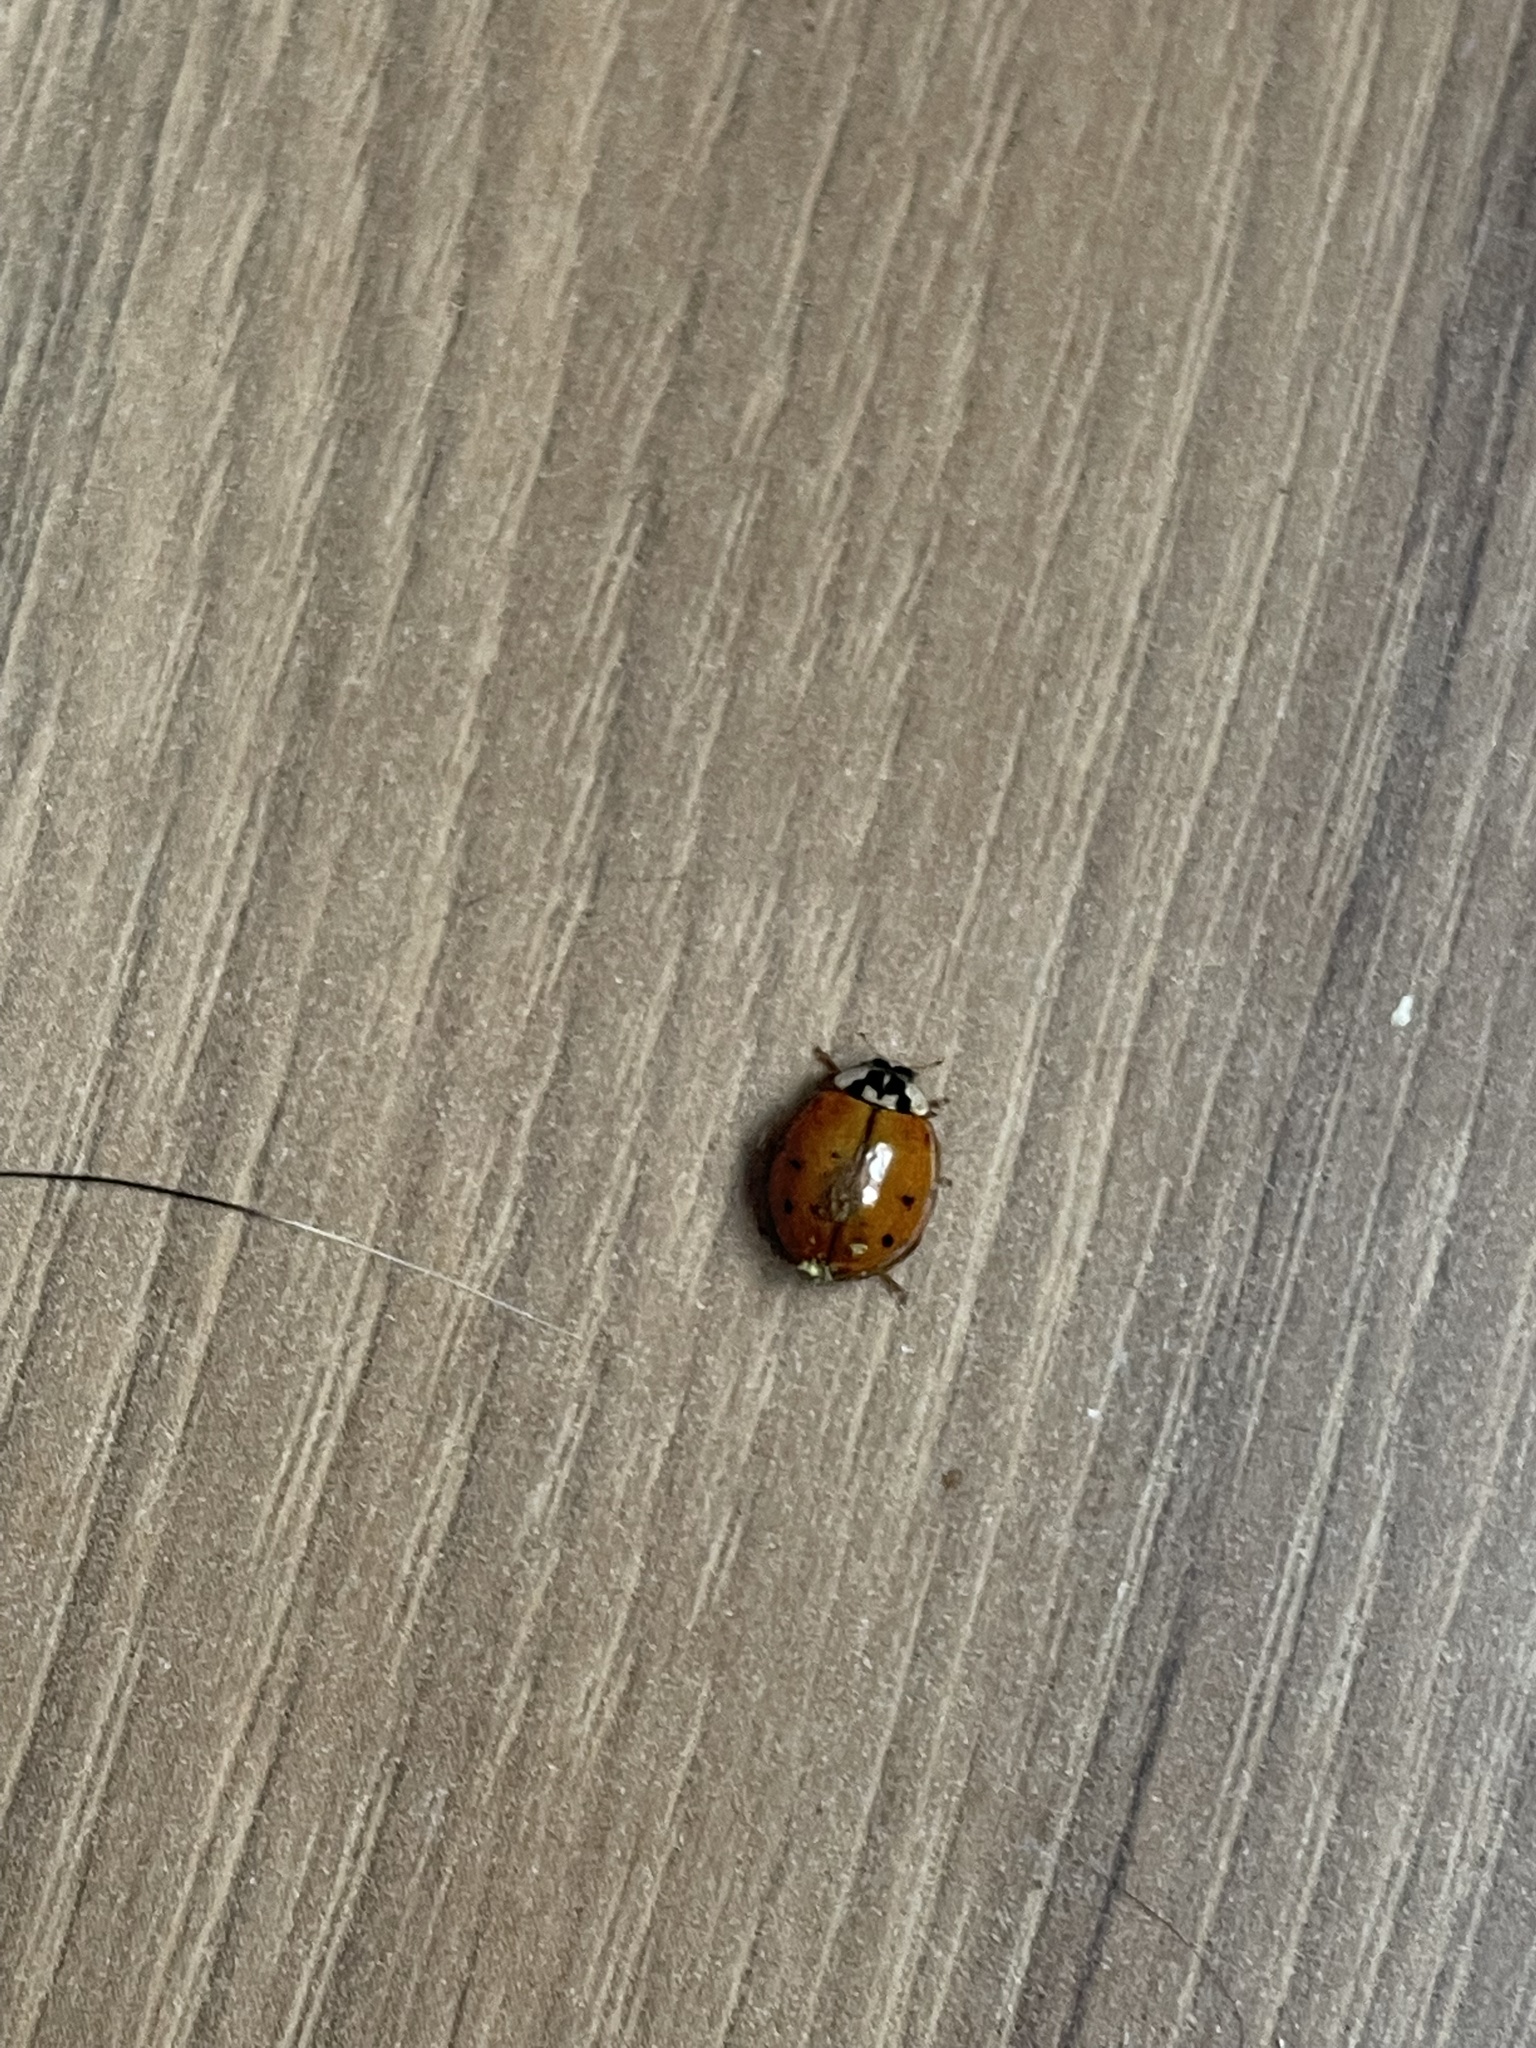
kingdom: Animalia
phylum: Arthropoda
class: Insecta
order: Coleoptera
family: Coccinellidae
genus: Harmonia
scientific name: Harmonia axyridis
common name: Harlequin ladybird
